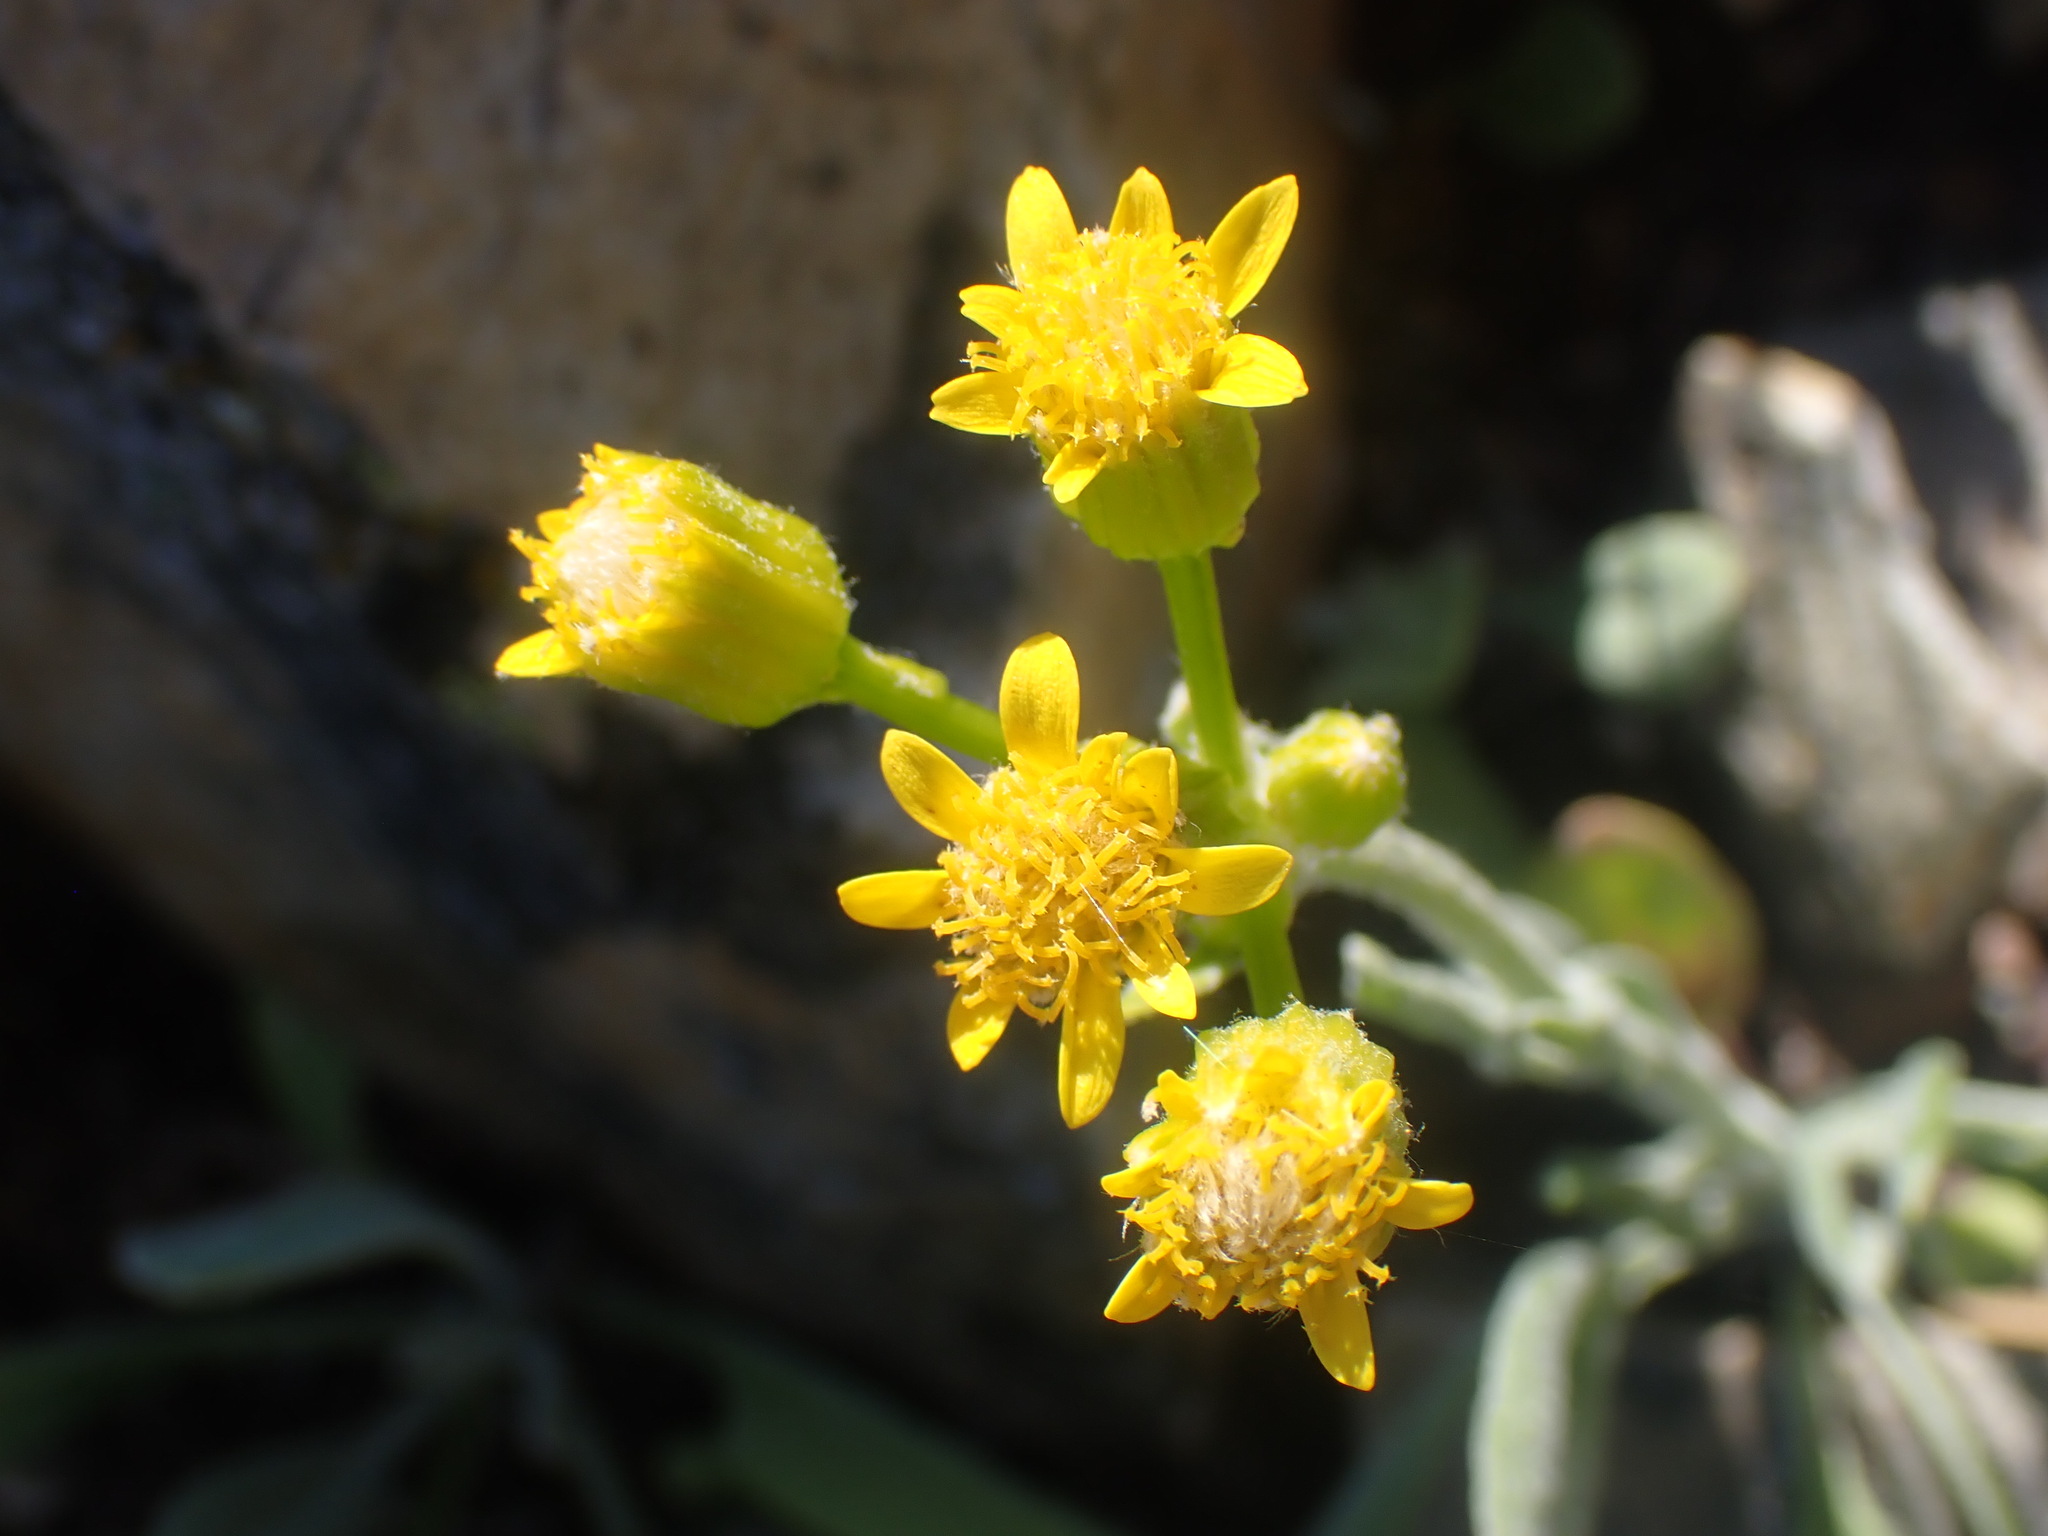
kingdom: Plantae
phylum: Tracheophyta
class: Magnoliopsida
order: Asterales
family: Asteraceae
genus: Packera
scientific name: Packera cana
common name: Woolly groundsel
